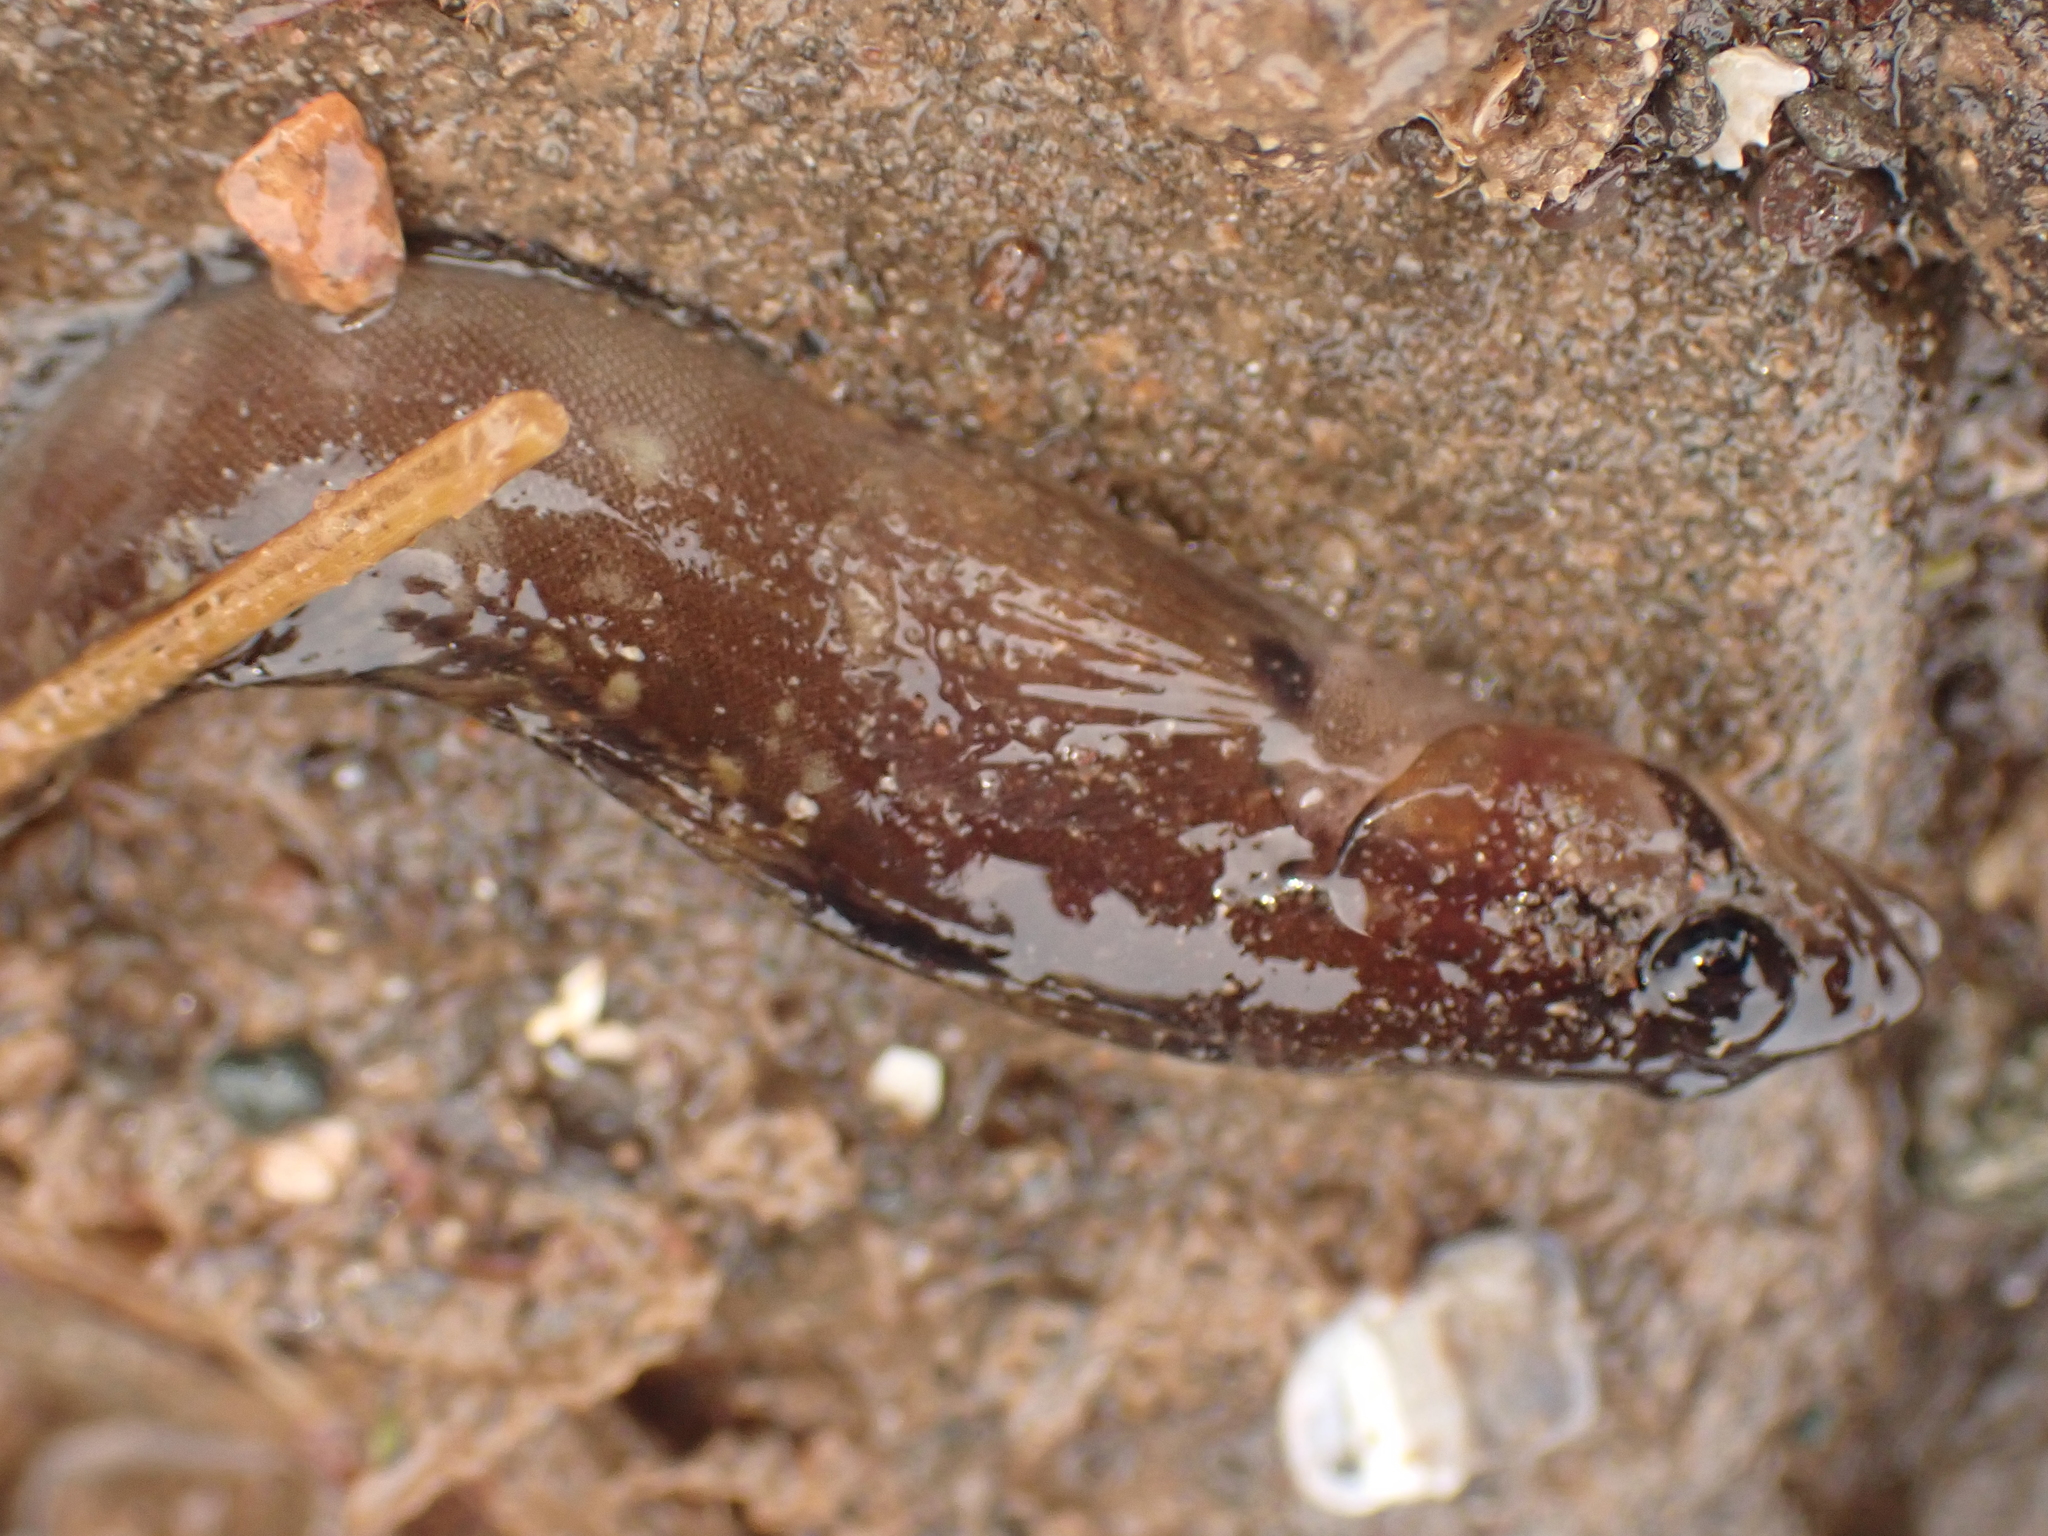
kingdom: Animalia
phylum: Chordata
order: Perciformes
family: Stichaeidae
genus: Ulvaria
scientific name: Ulvaria subbifurcata
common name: Radiated shanny
